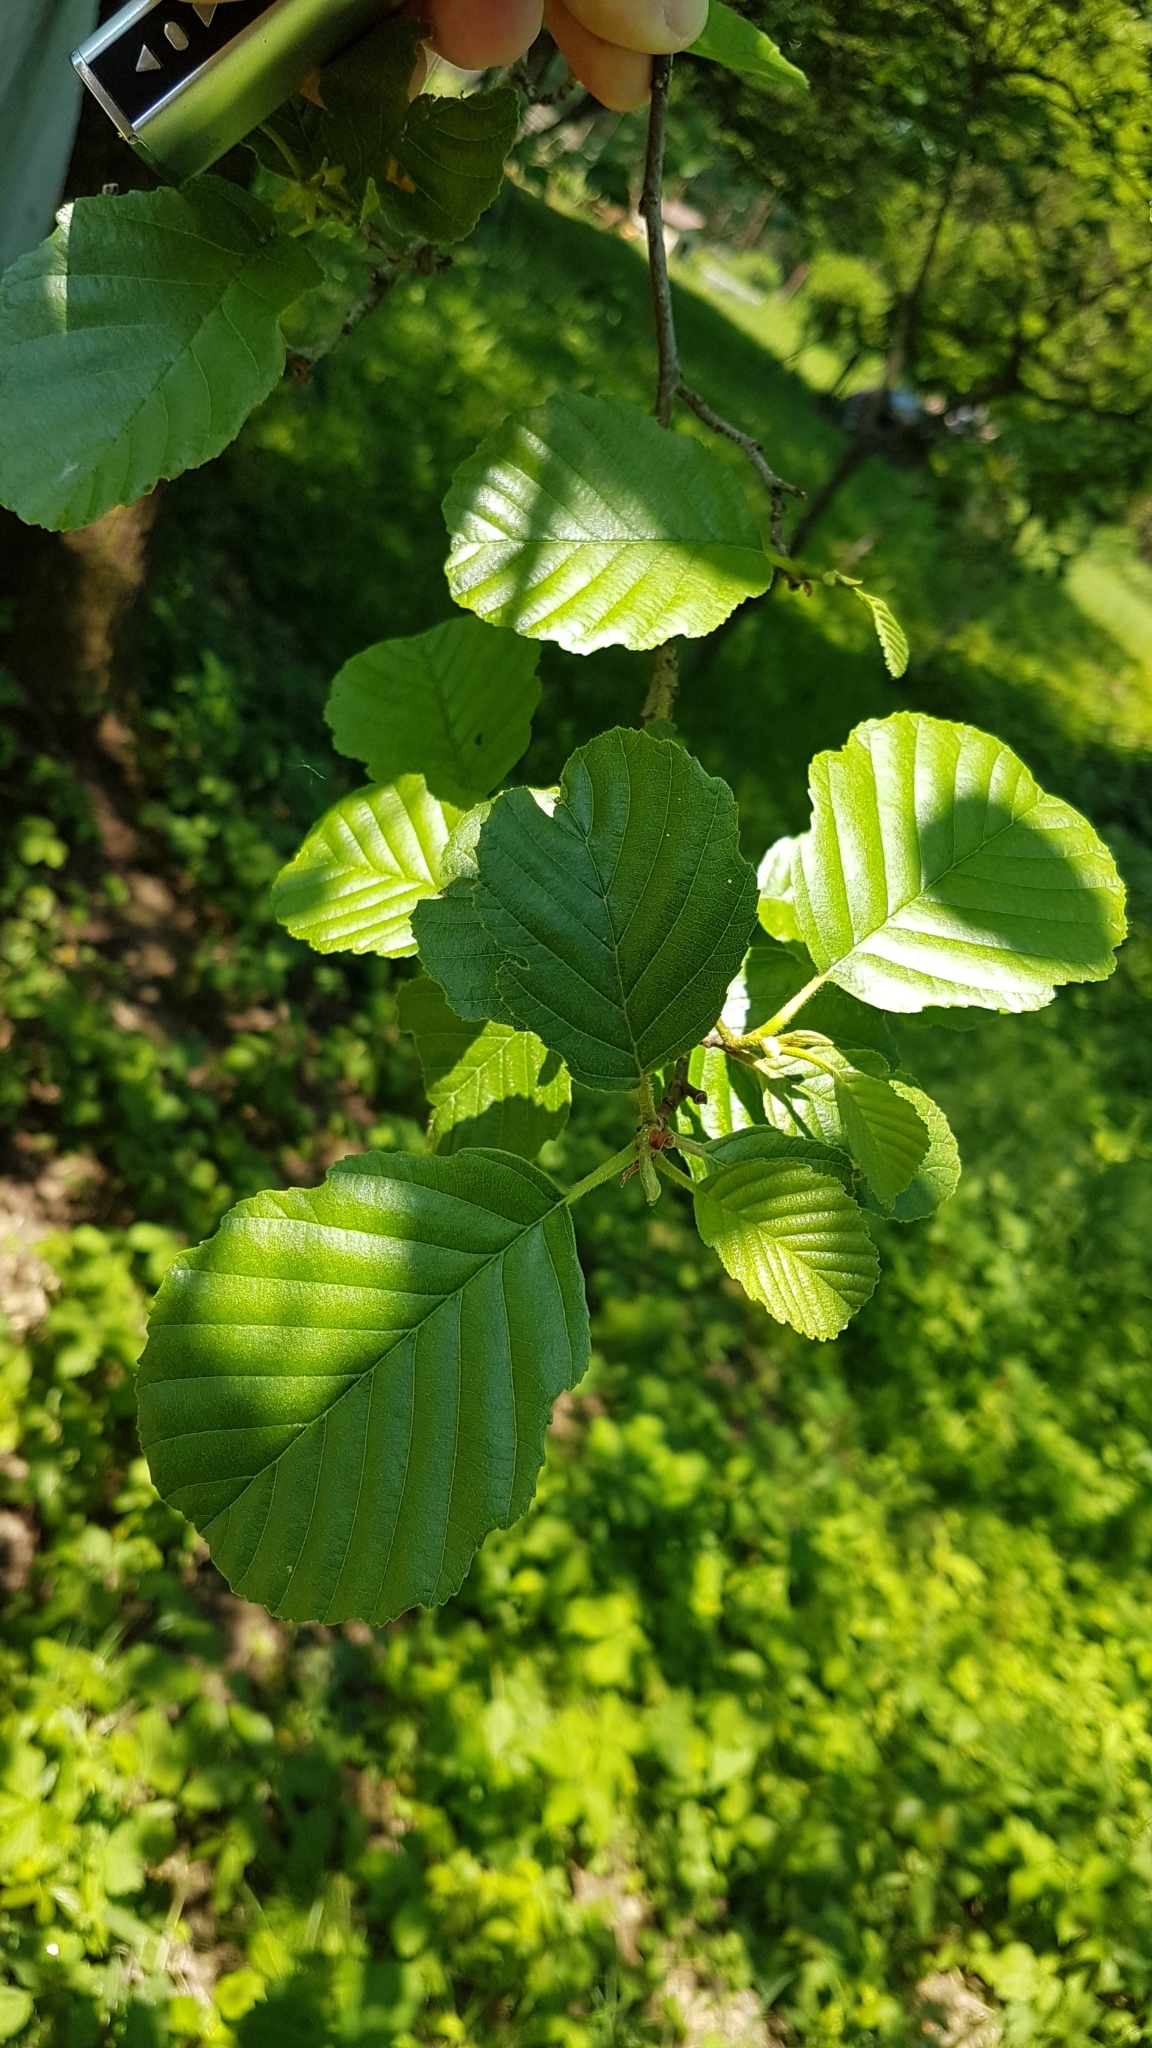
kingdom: Plantae
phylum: Tracheophyta
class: Magnoliopsida
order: Fagales
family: Betulaceae
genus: Alnus
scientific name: Alnus glutinosa
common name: Black alder
